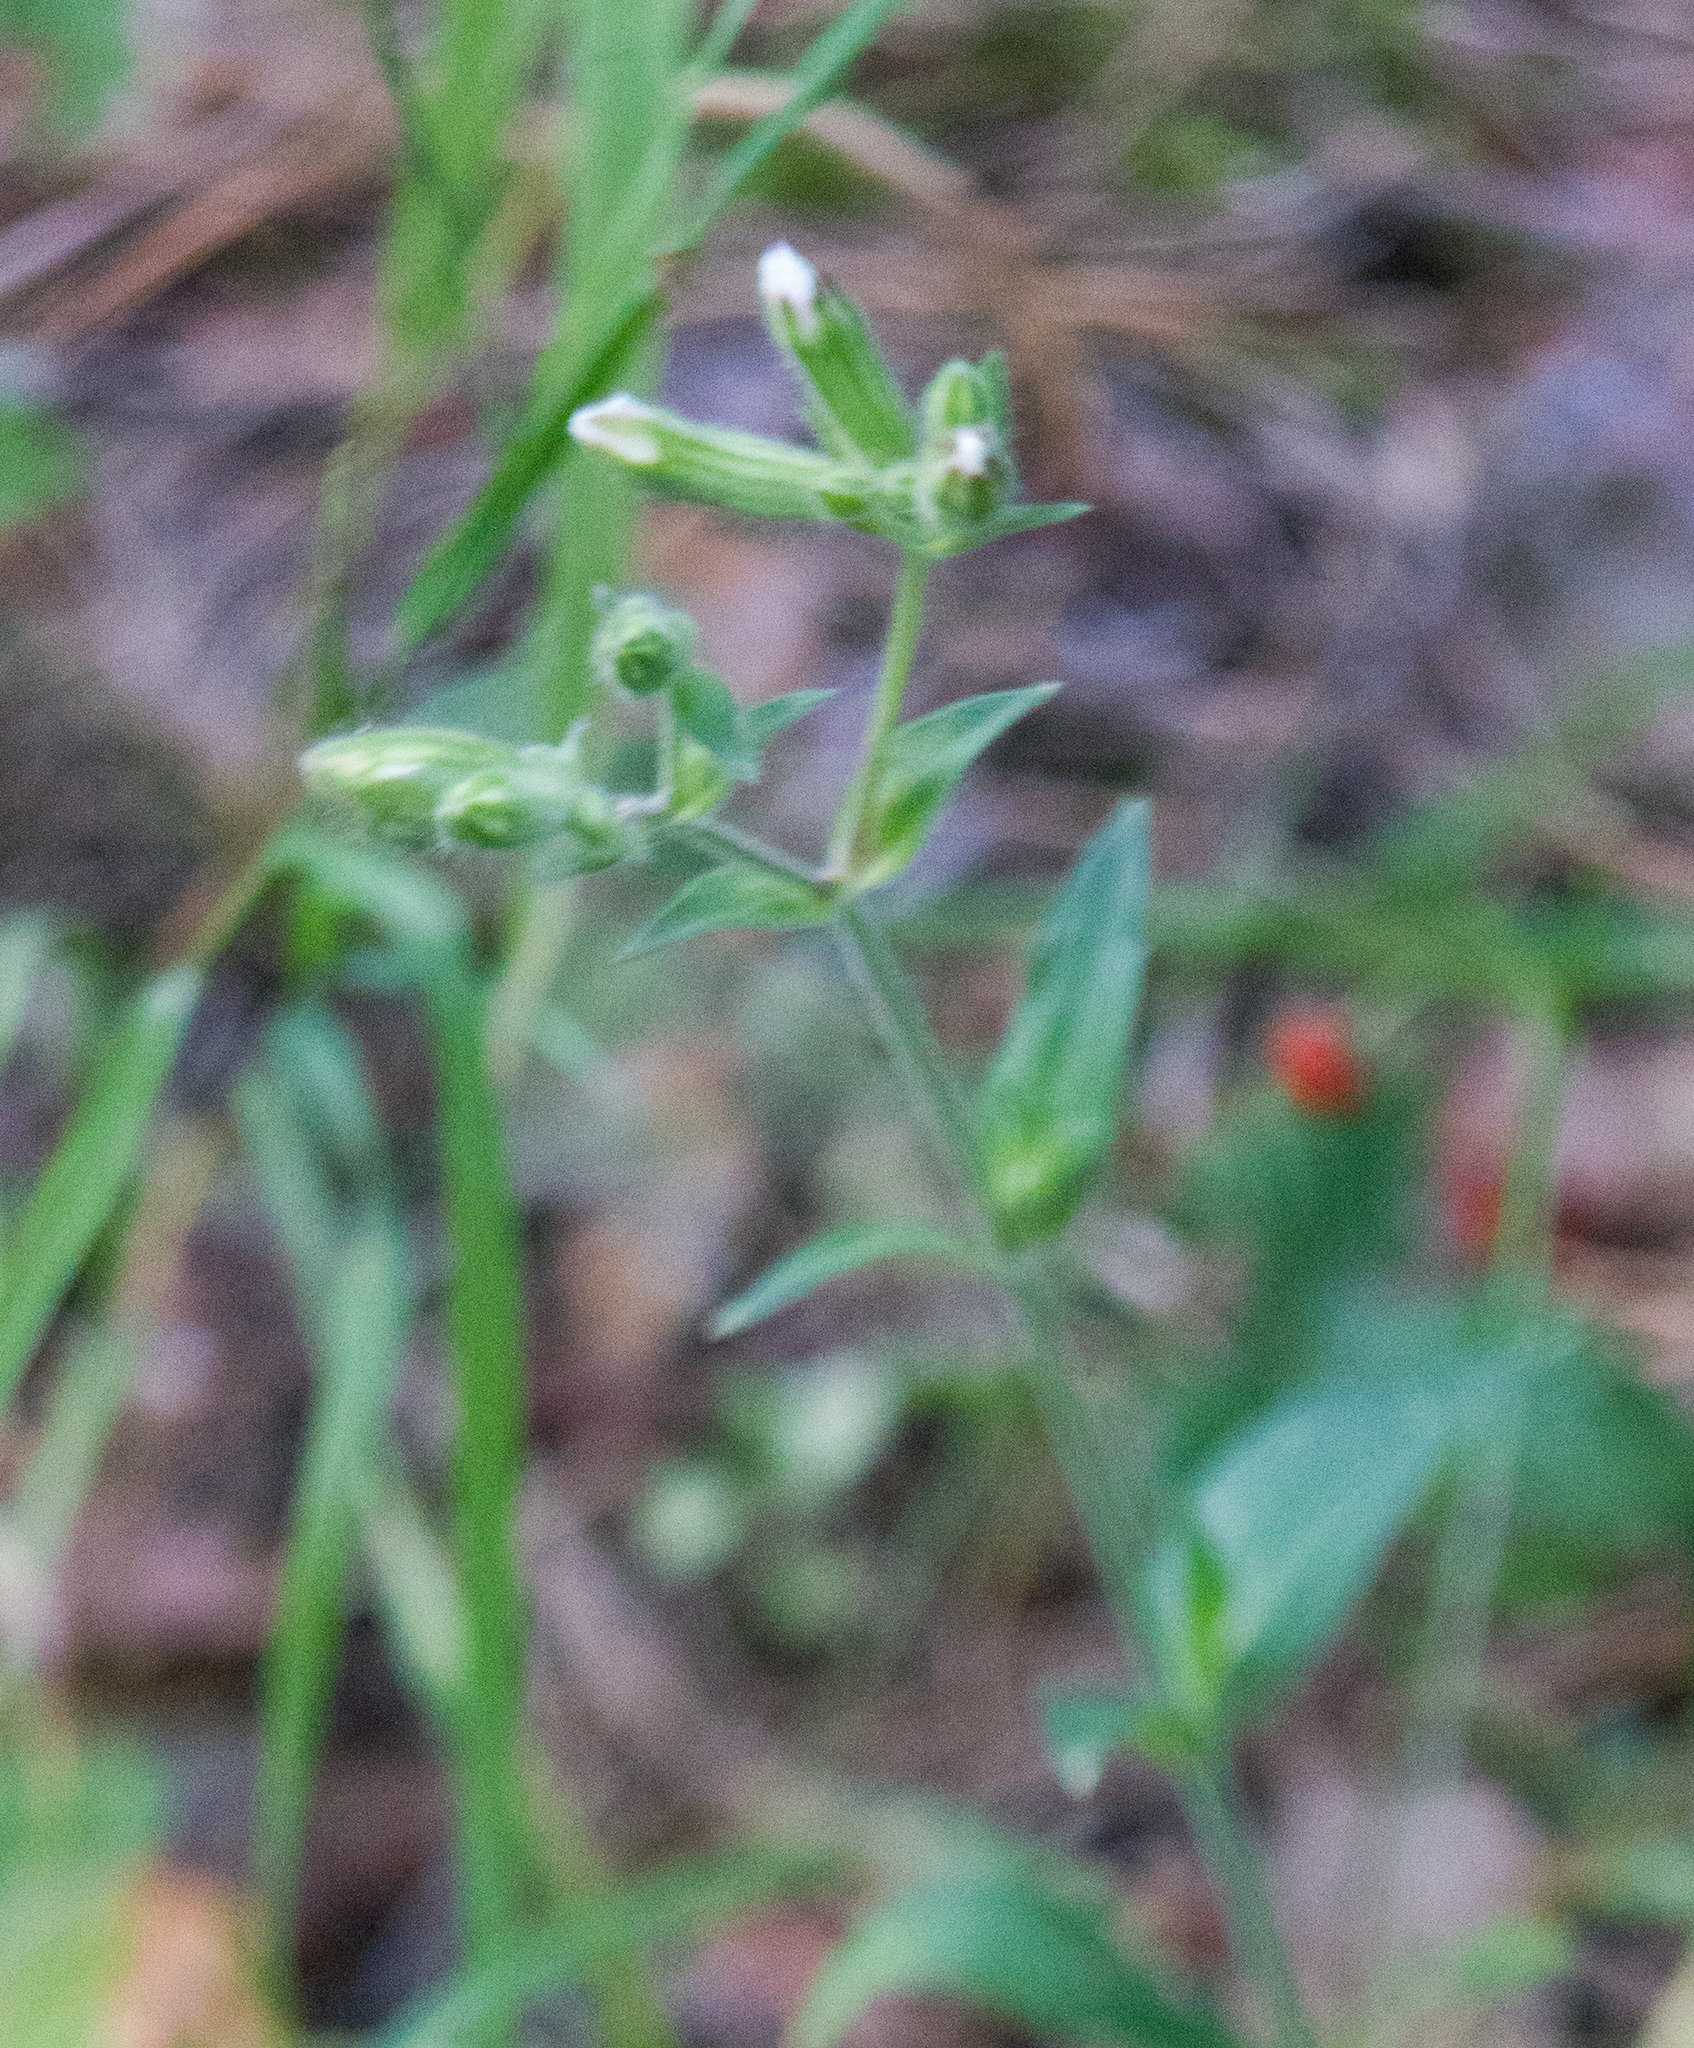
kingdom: Plantae
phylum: Tracheophyta
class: Magnoliopsida
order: Caryophyllales
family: Caryophyllaceae
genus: Silene
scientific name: Silene latifolia
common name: White campion
